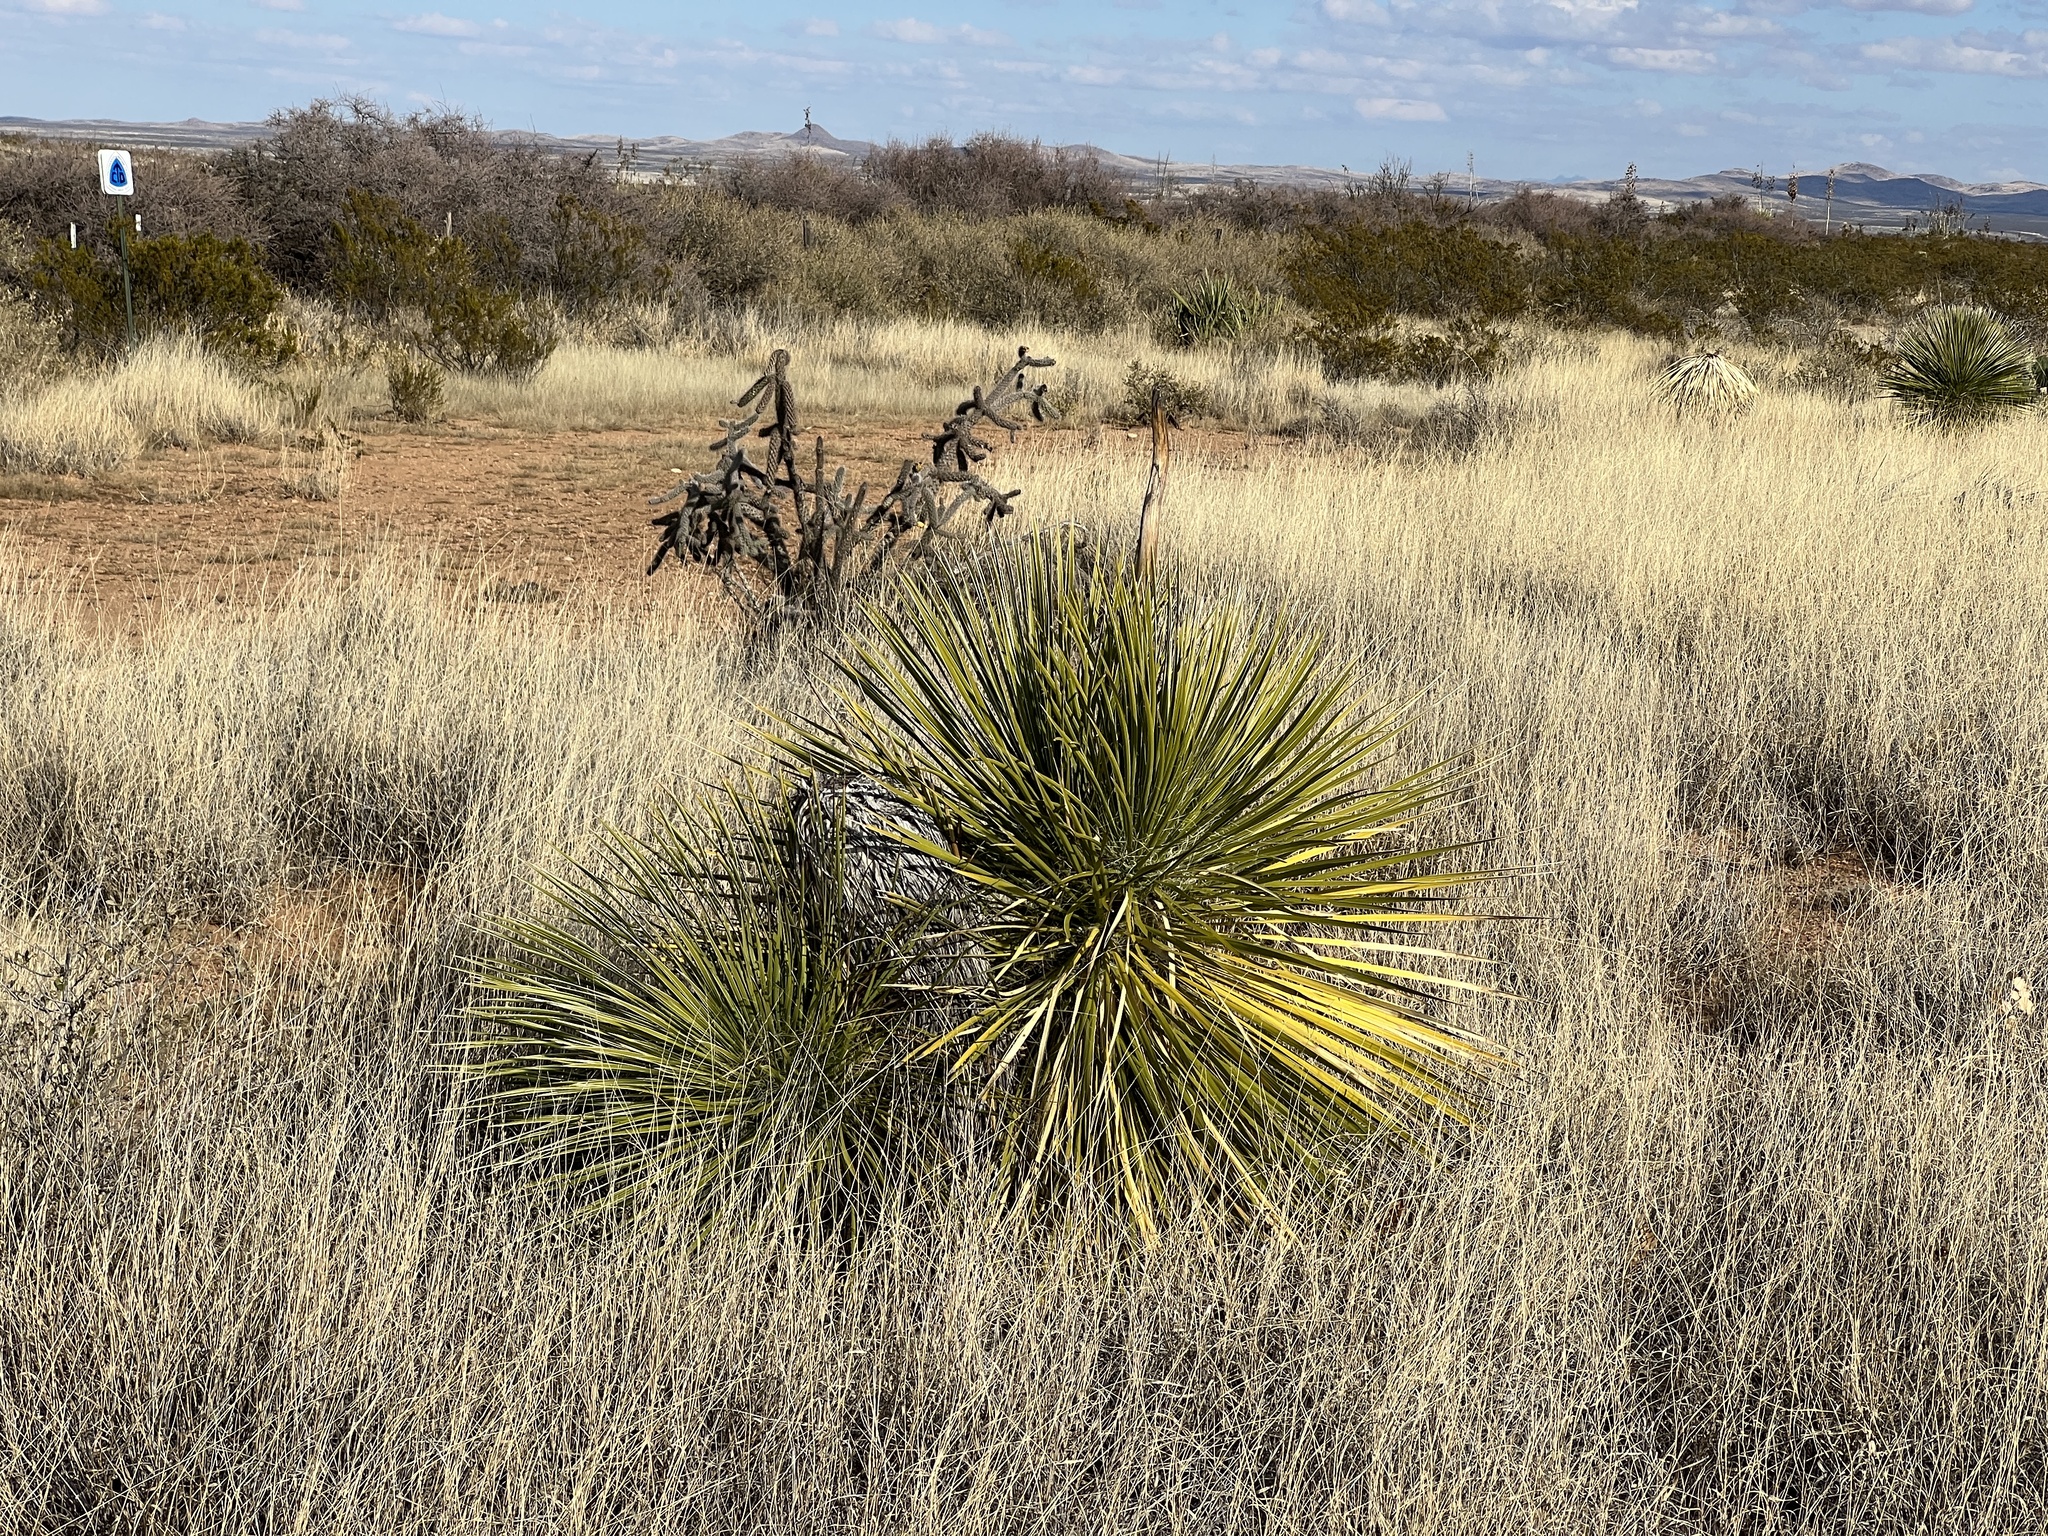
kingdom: Plantae
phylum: Tracheophyta
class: Liliopsida
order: Asparagales
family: Asparagaceae
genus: Yucca
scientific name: Yucca elata
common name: Palmella
